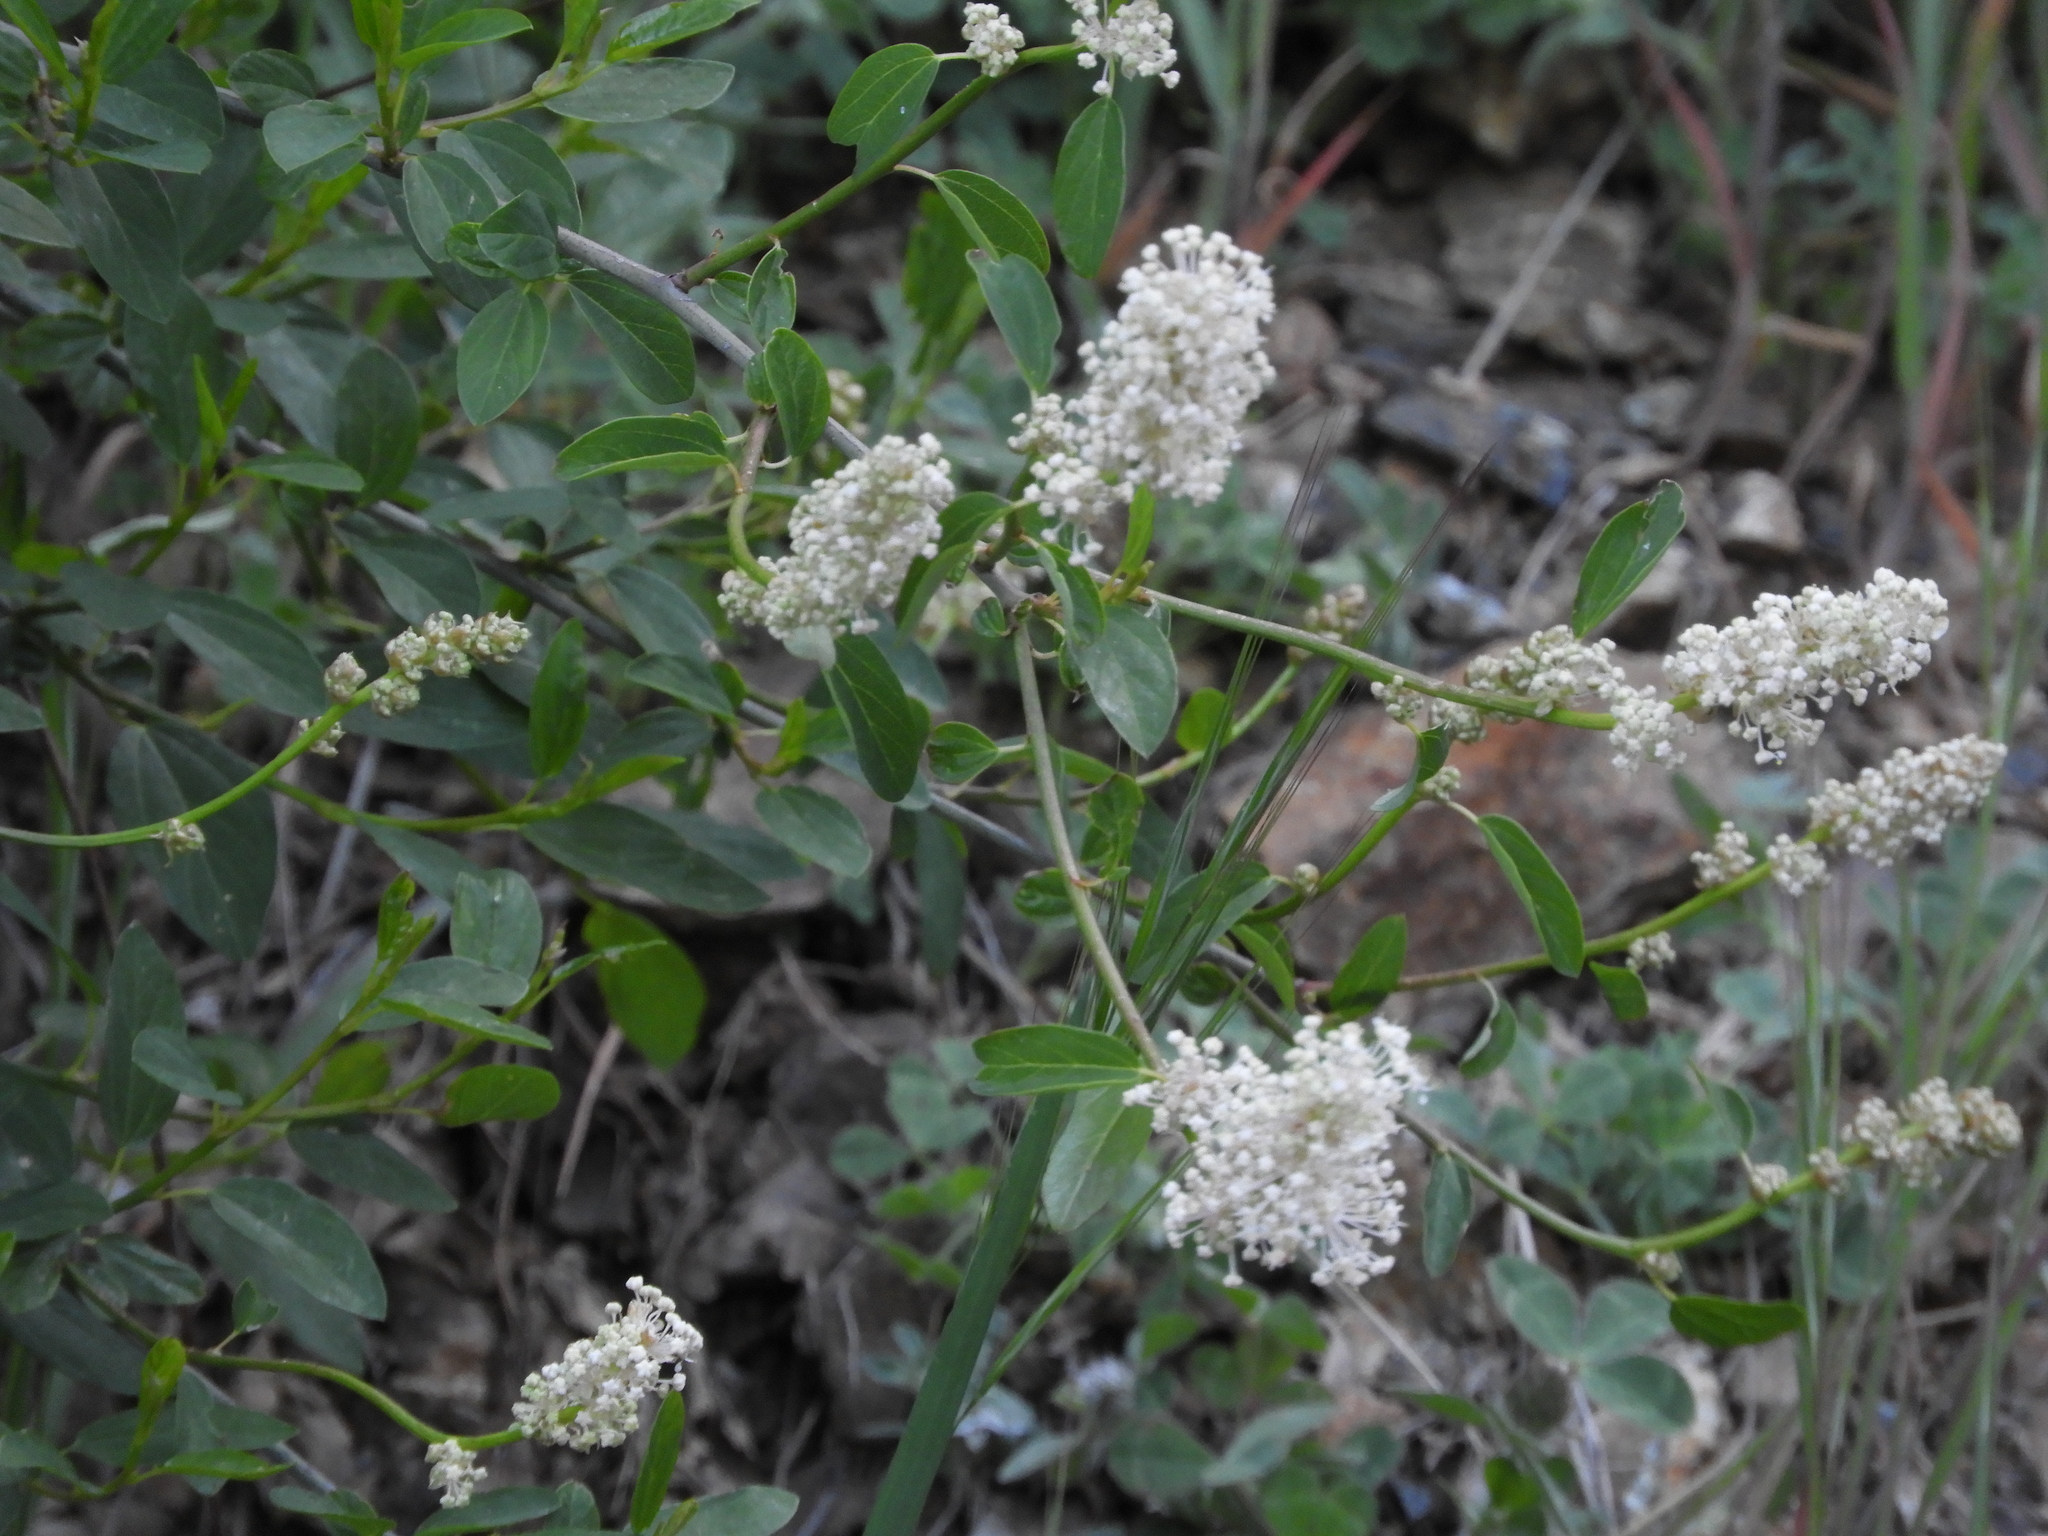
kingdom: Plantae
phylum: Tracheophyta
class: Magnoliopsida
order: Rosales
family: Rhamnaceae
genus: Ceanothus
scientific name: Ceanothus integerrimus
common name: Deerbrush ceanothus
